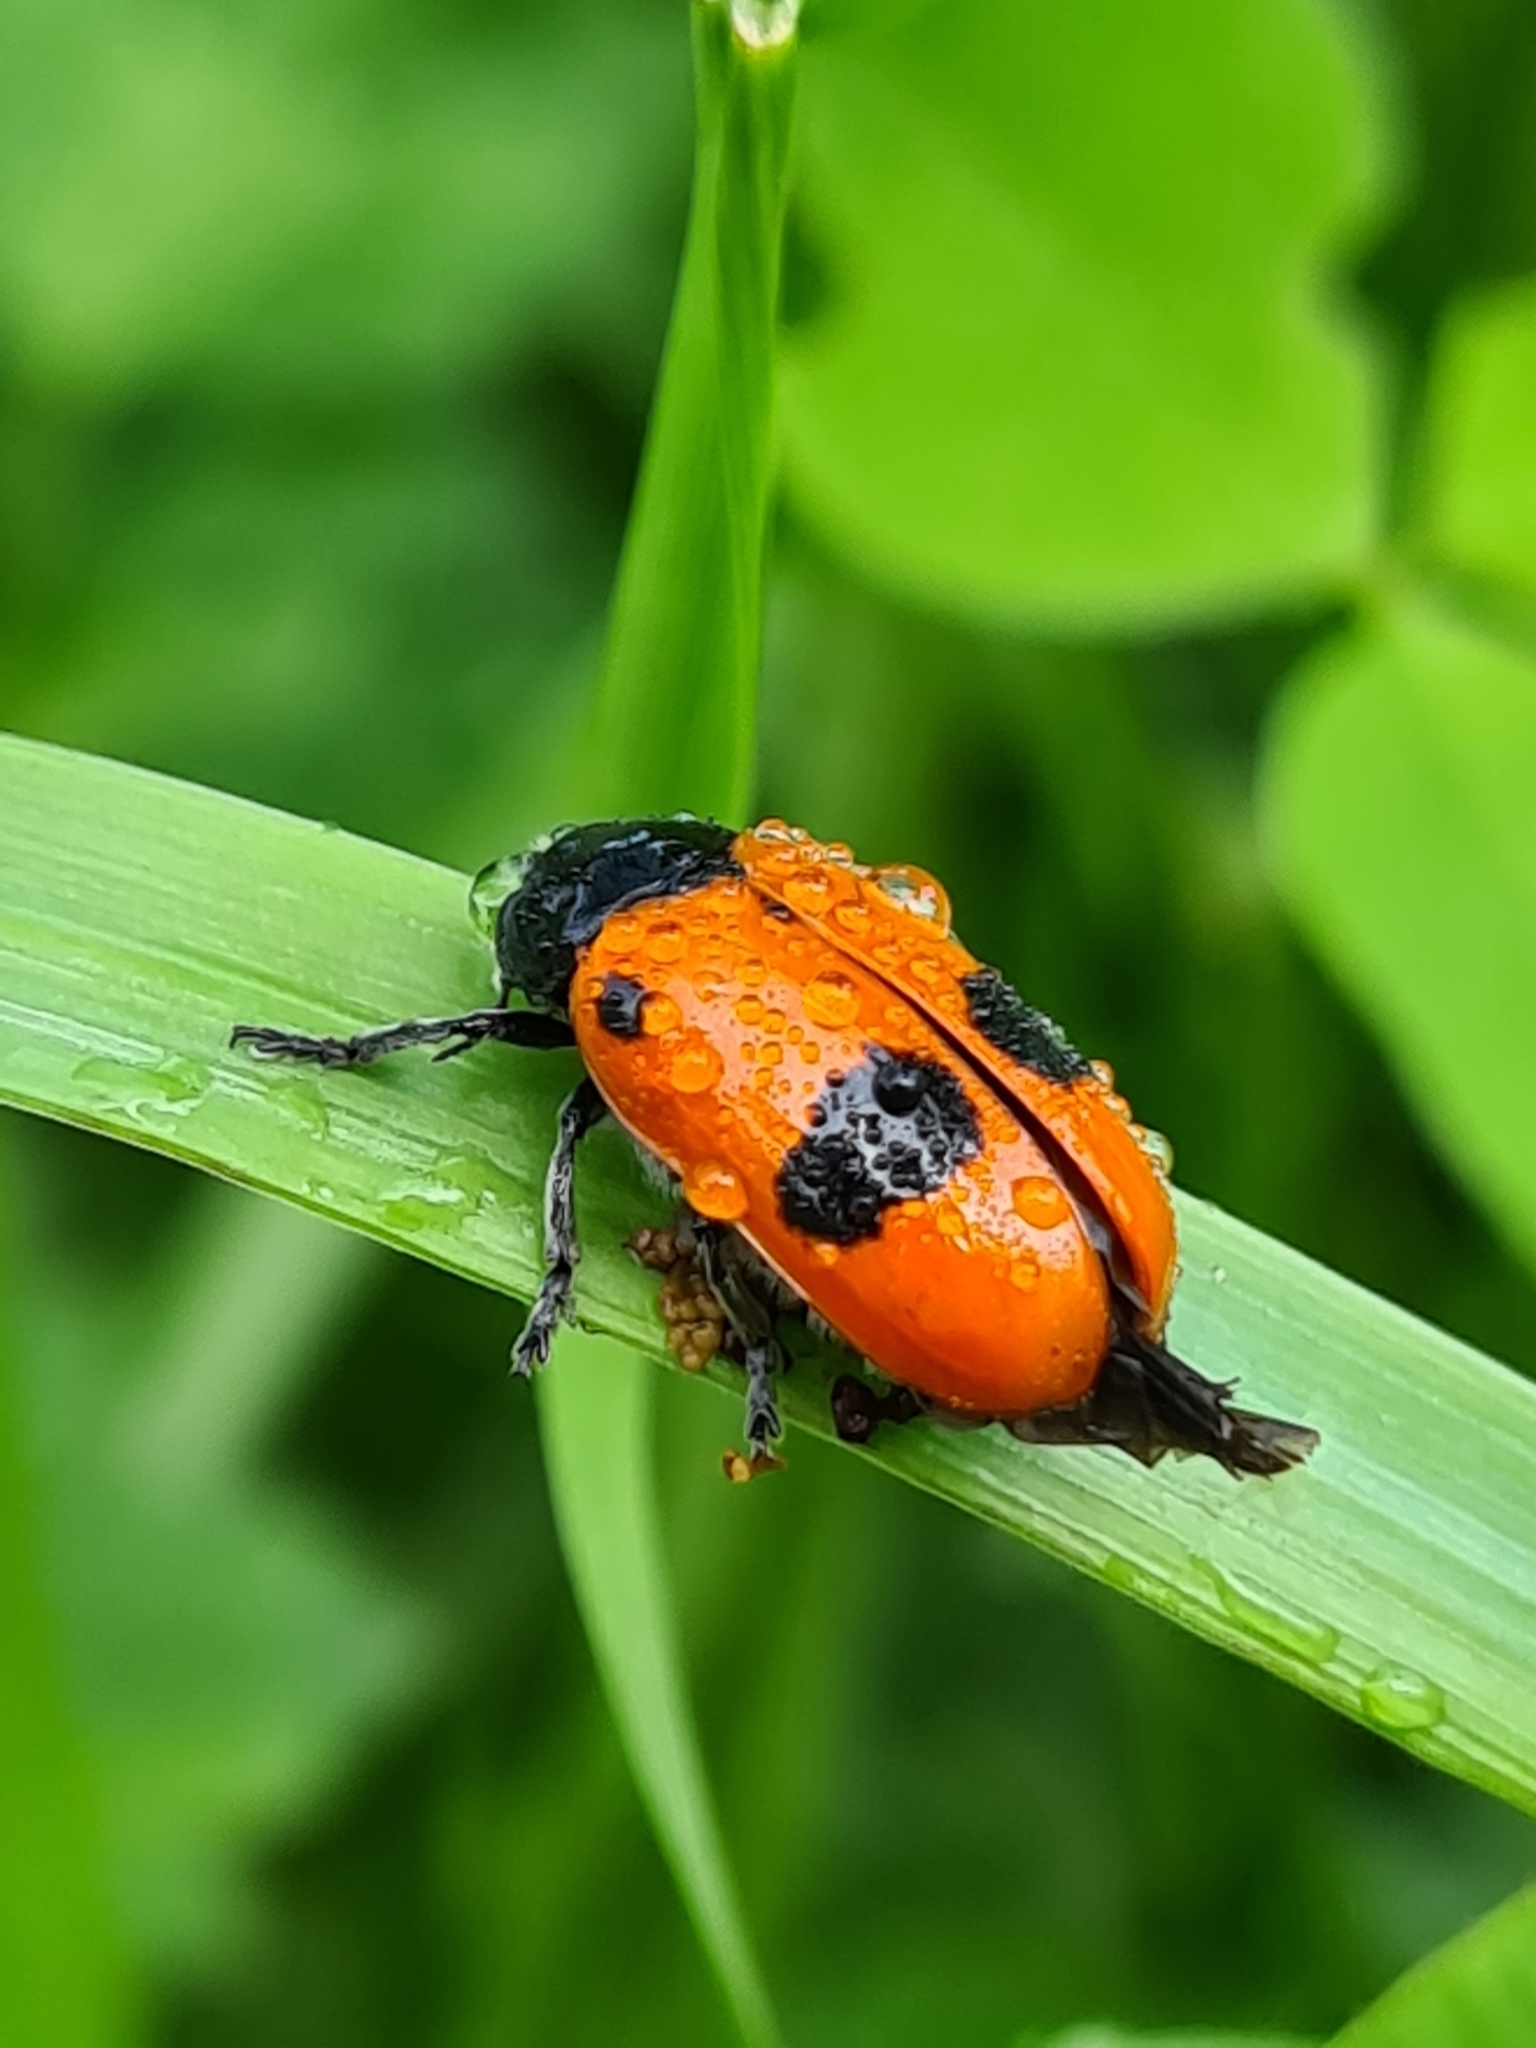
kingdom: Animalia
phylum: Arthropoda
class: Insecta
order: Coleoptera
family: Chrysomelidae
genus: Clytra
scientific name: Clytra laeviuscula
